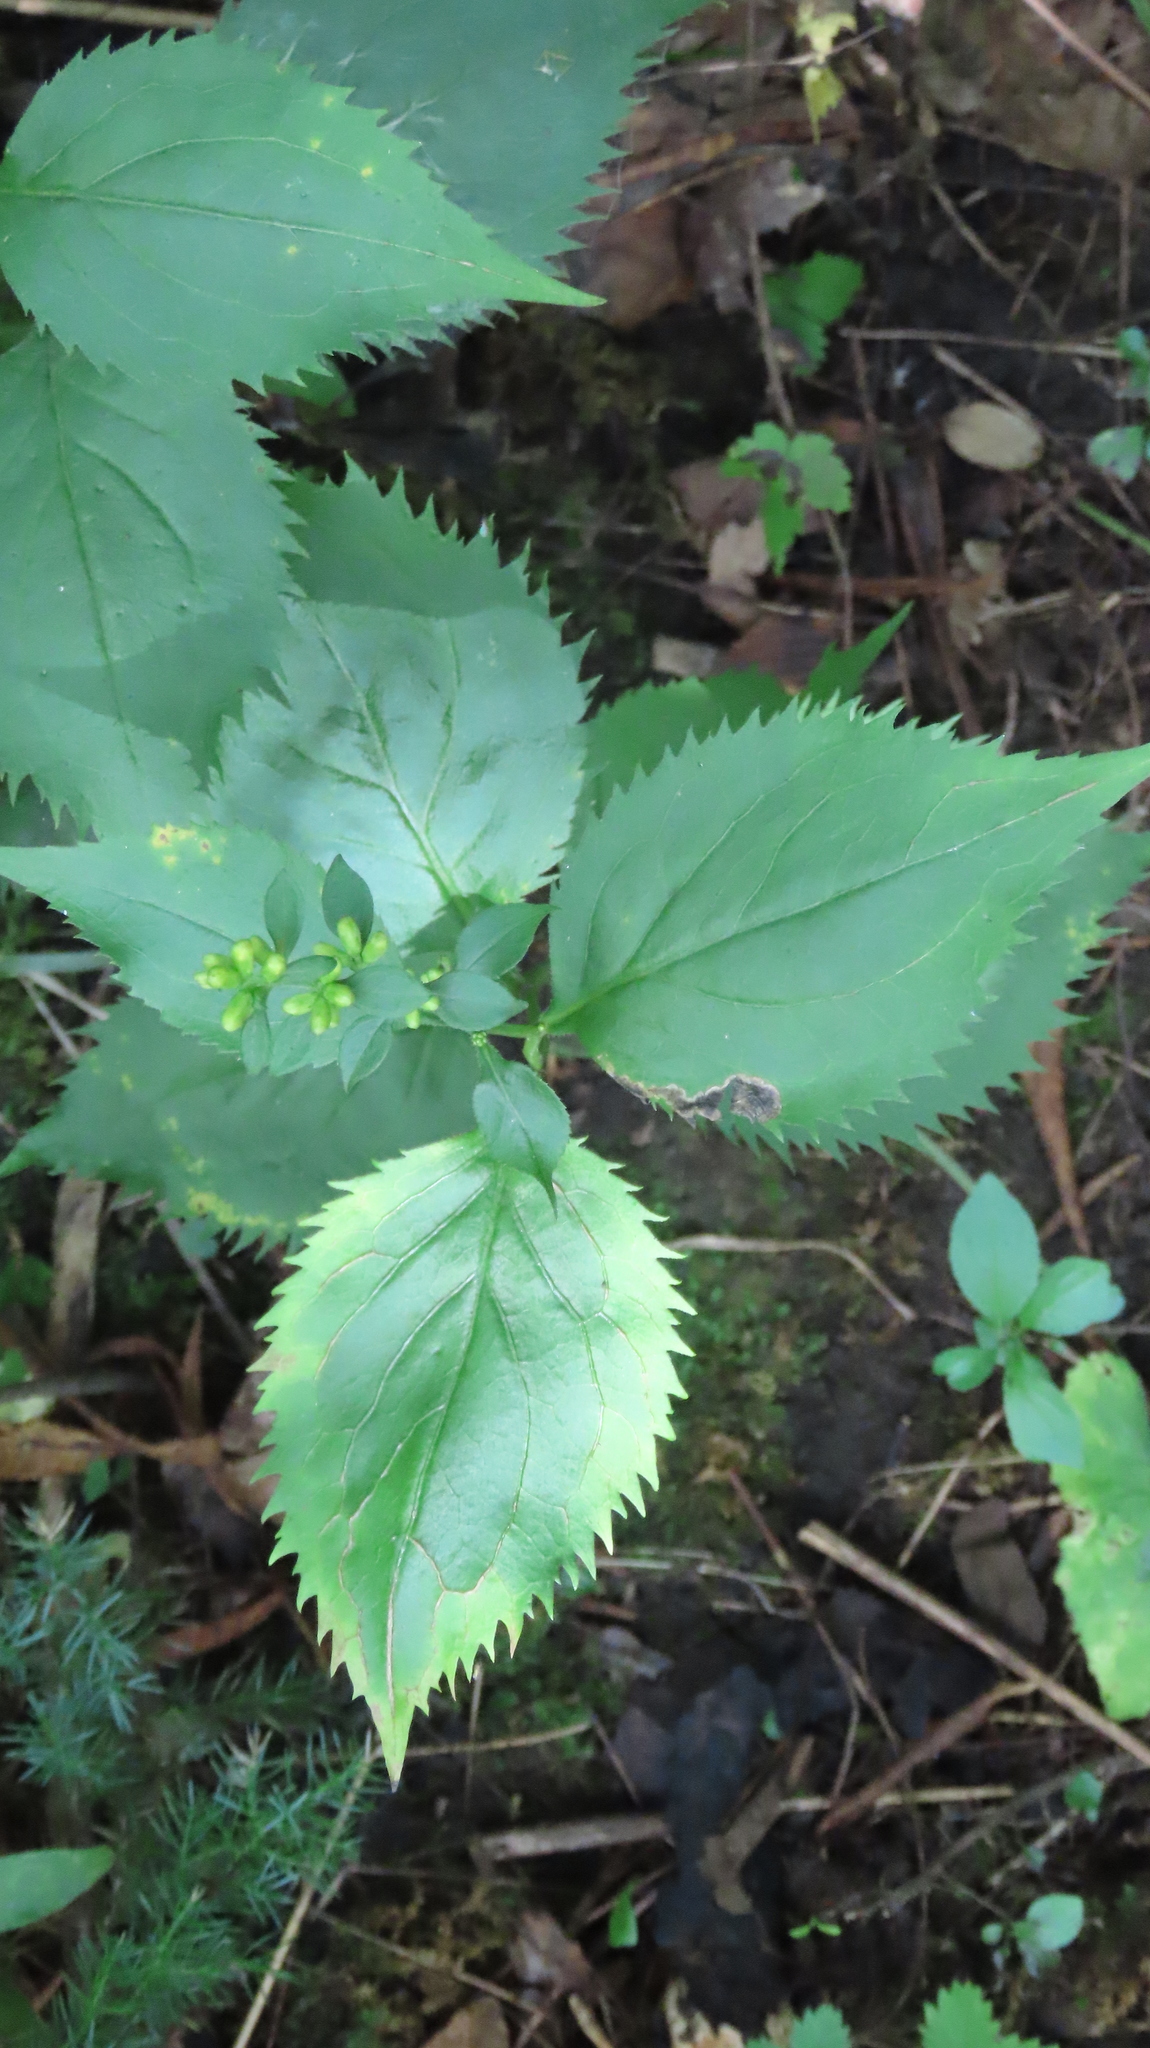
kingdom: Plantae
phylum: Tracheophyta
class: Magnoliopsida
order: Asterales
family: Asteraceae
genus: Solidago
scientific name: Solidago flexicaulis
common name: Zig-zag goldenrod
